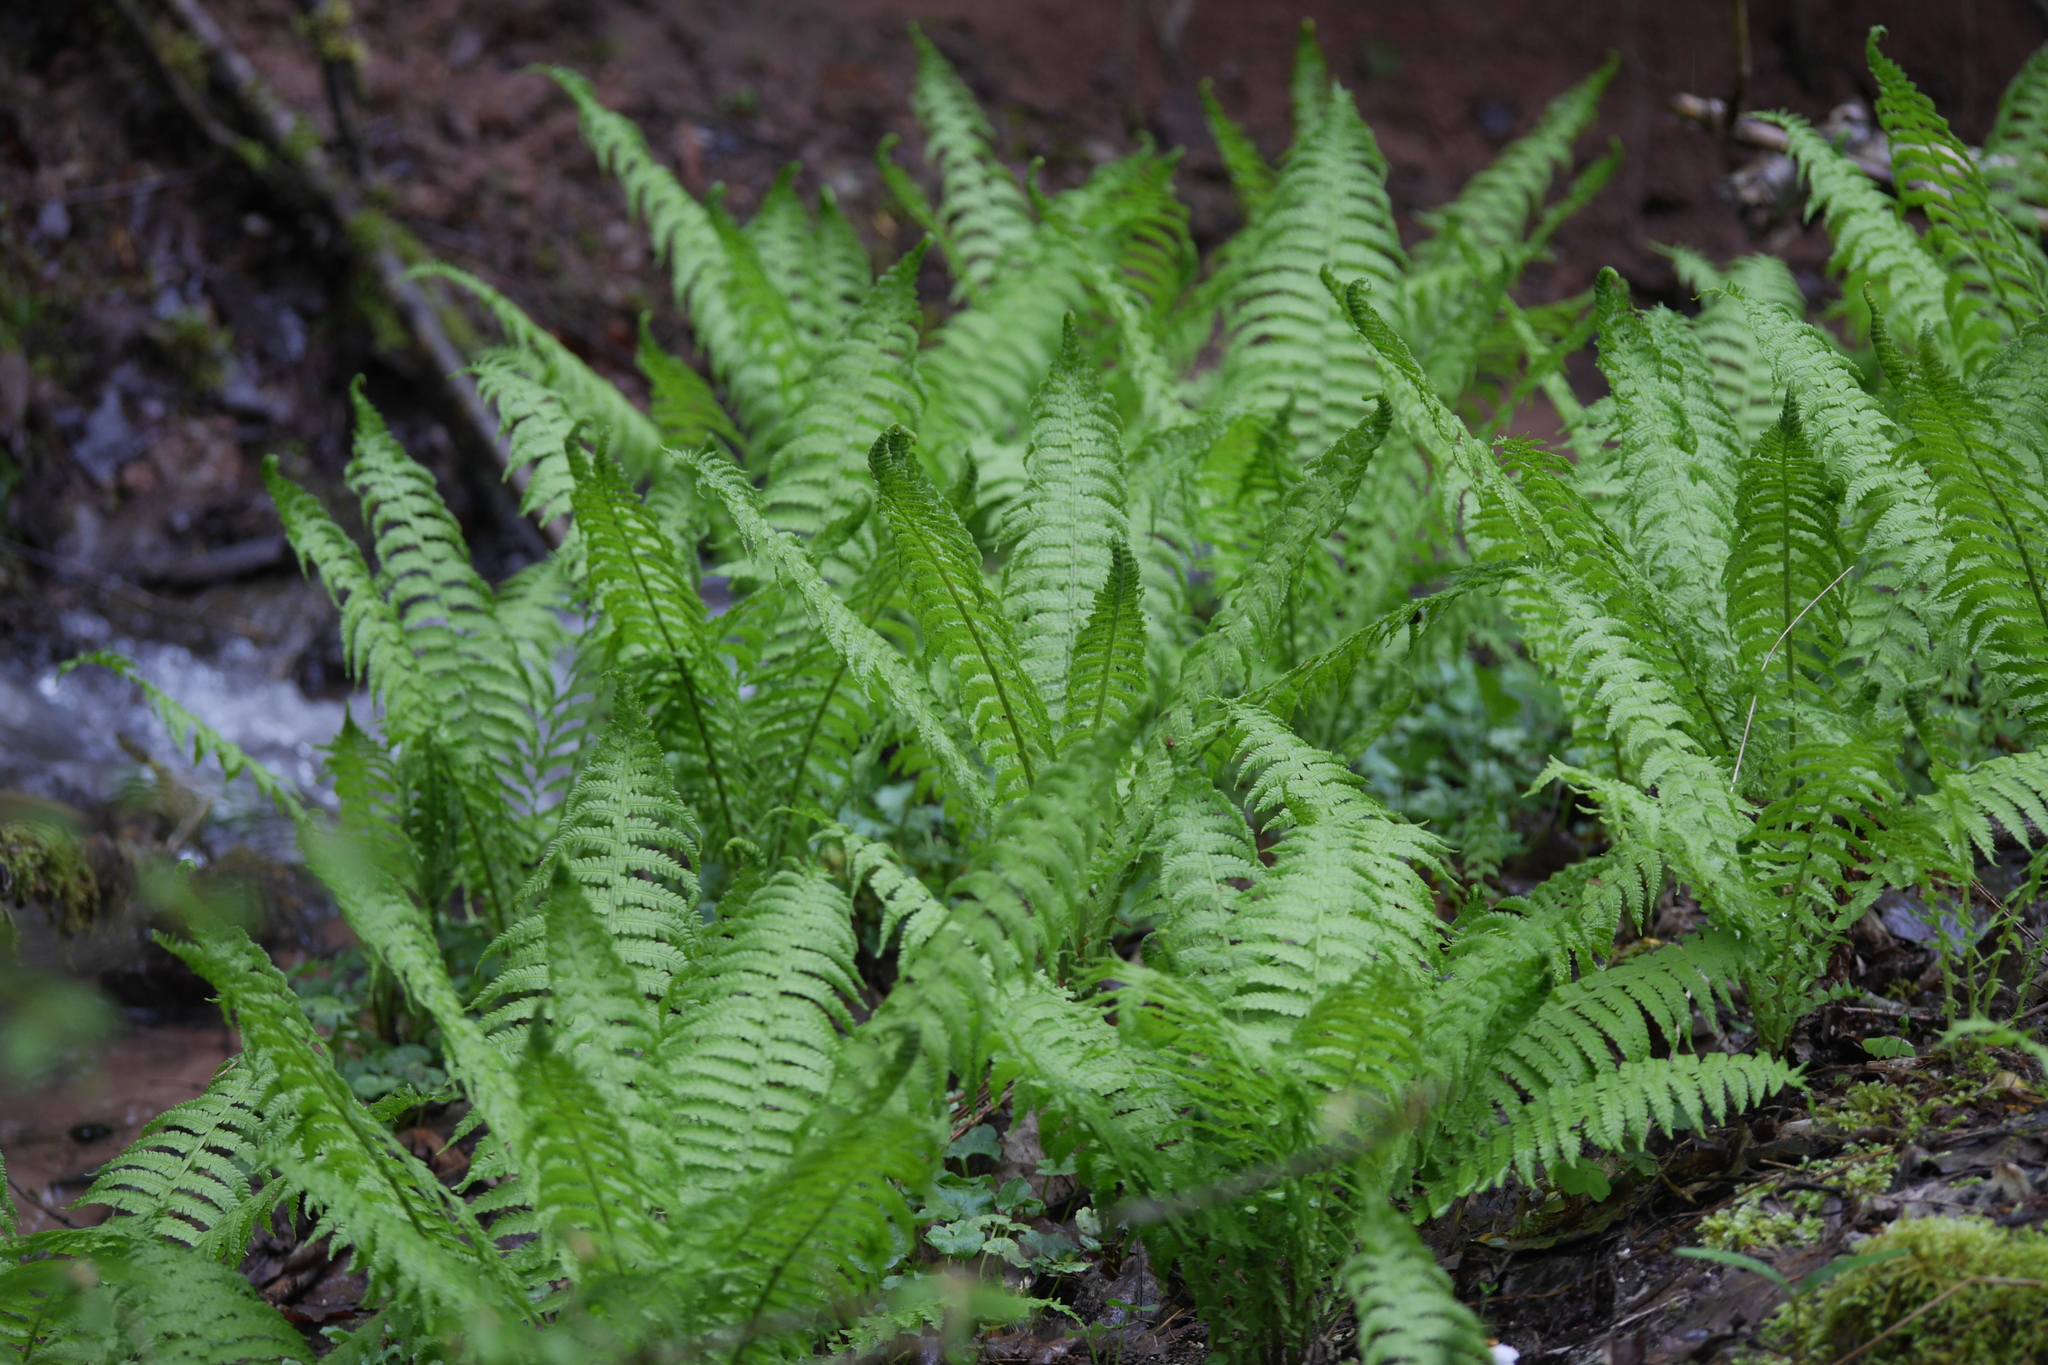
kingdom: Plantae
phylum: Tracheophyta
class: Polypodiopsida
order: Polypodiales
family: Onocleaceae
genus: Matteuccia
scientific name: Matteuccia struthiopteris
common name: Ostrich fern
